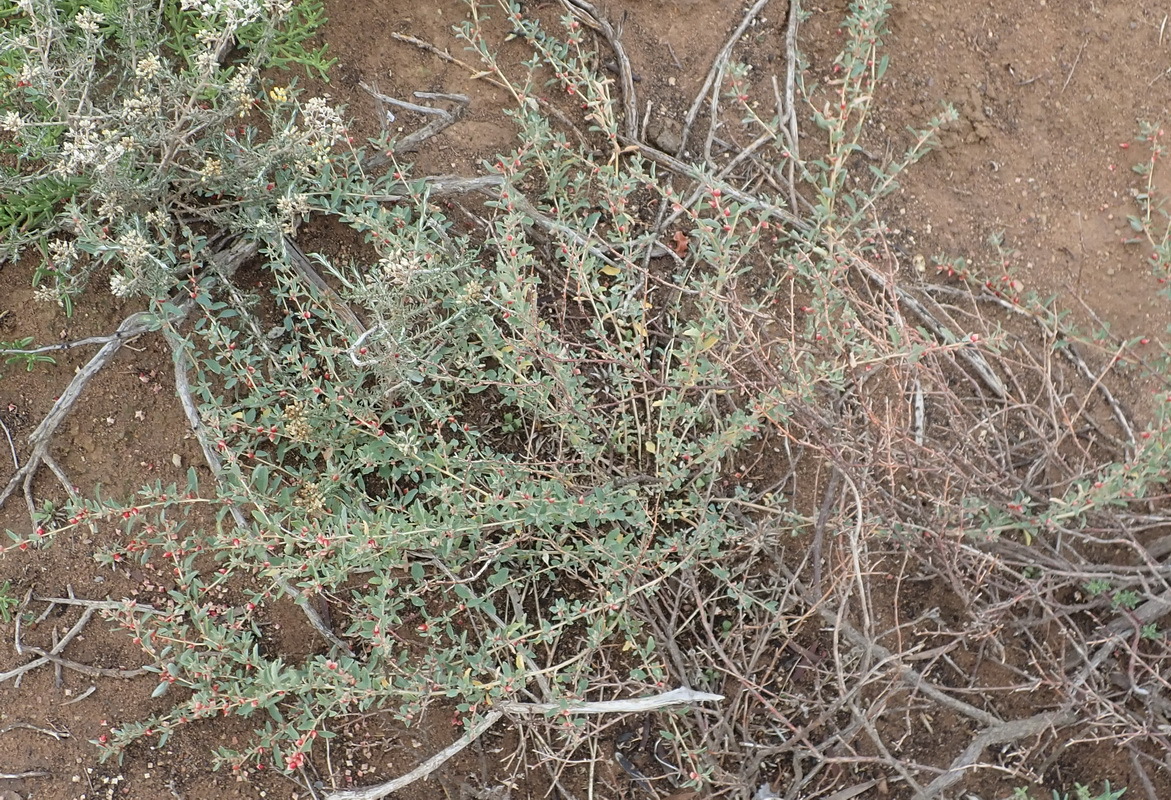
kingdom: Plantae
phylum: Tracheophyta
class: Magnoliopsida
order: Caryophyllales
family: Amaranthaceae
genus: Atriplex
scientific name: Atriplex semibaccata
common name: Australian saltbush
